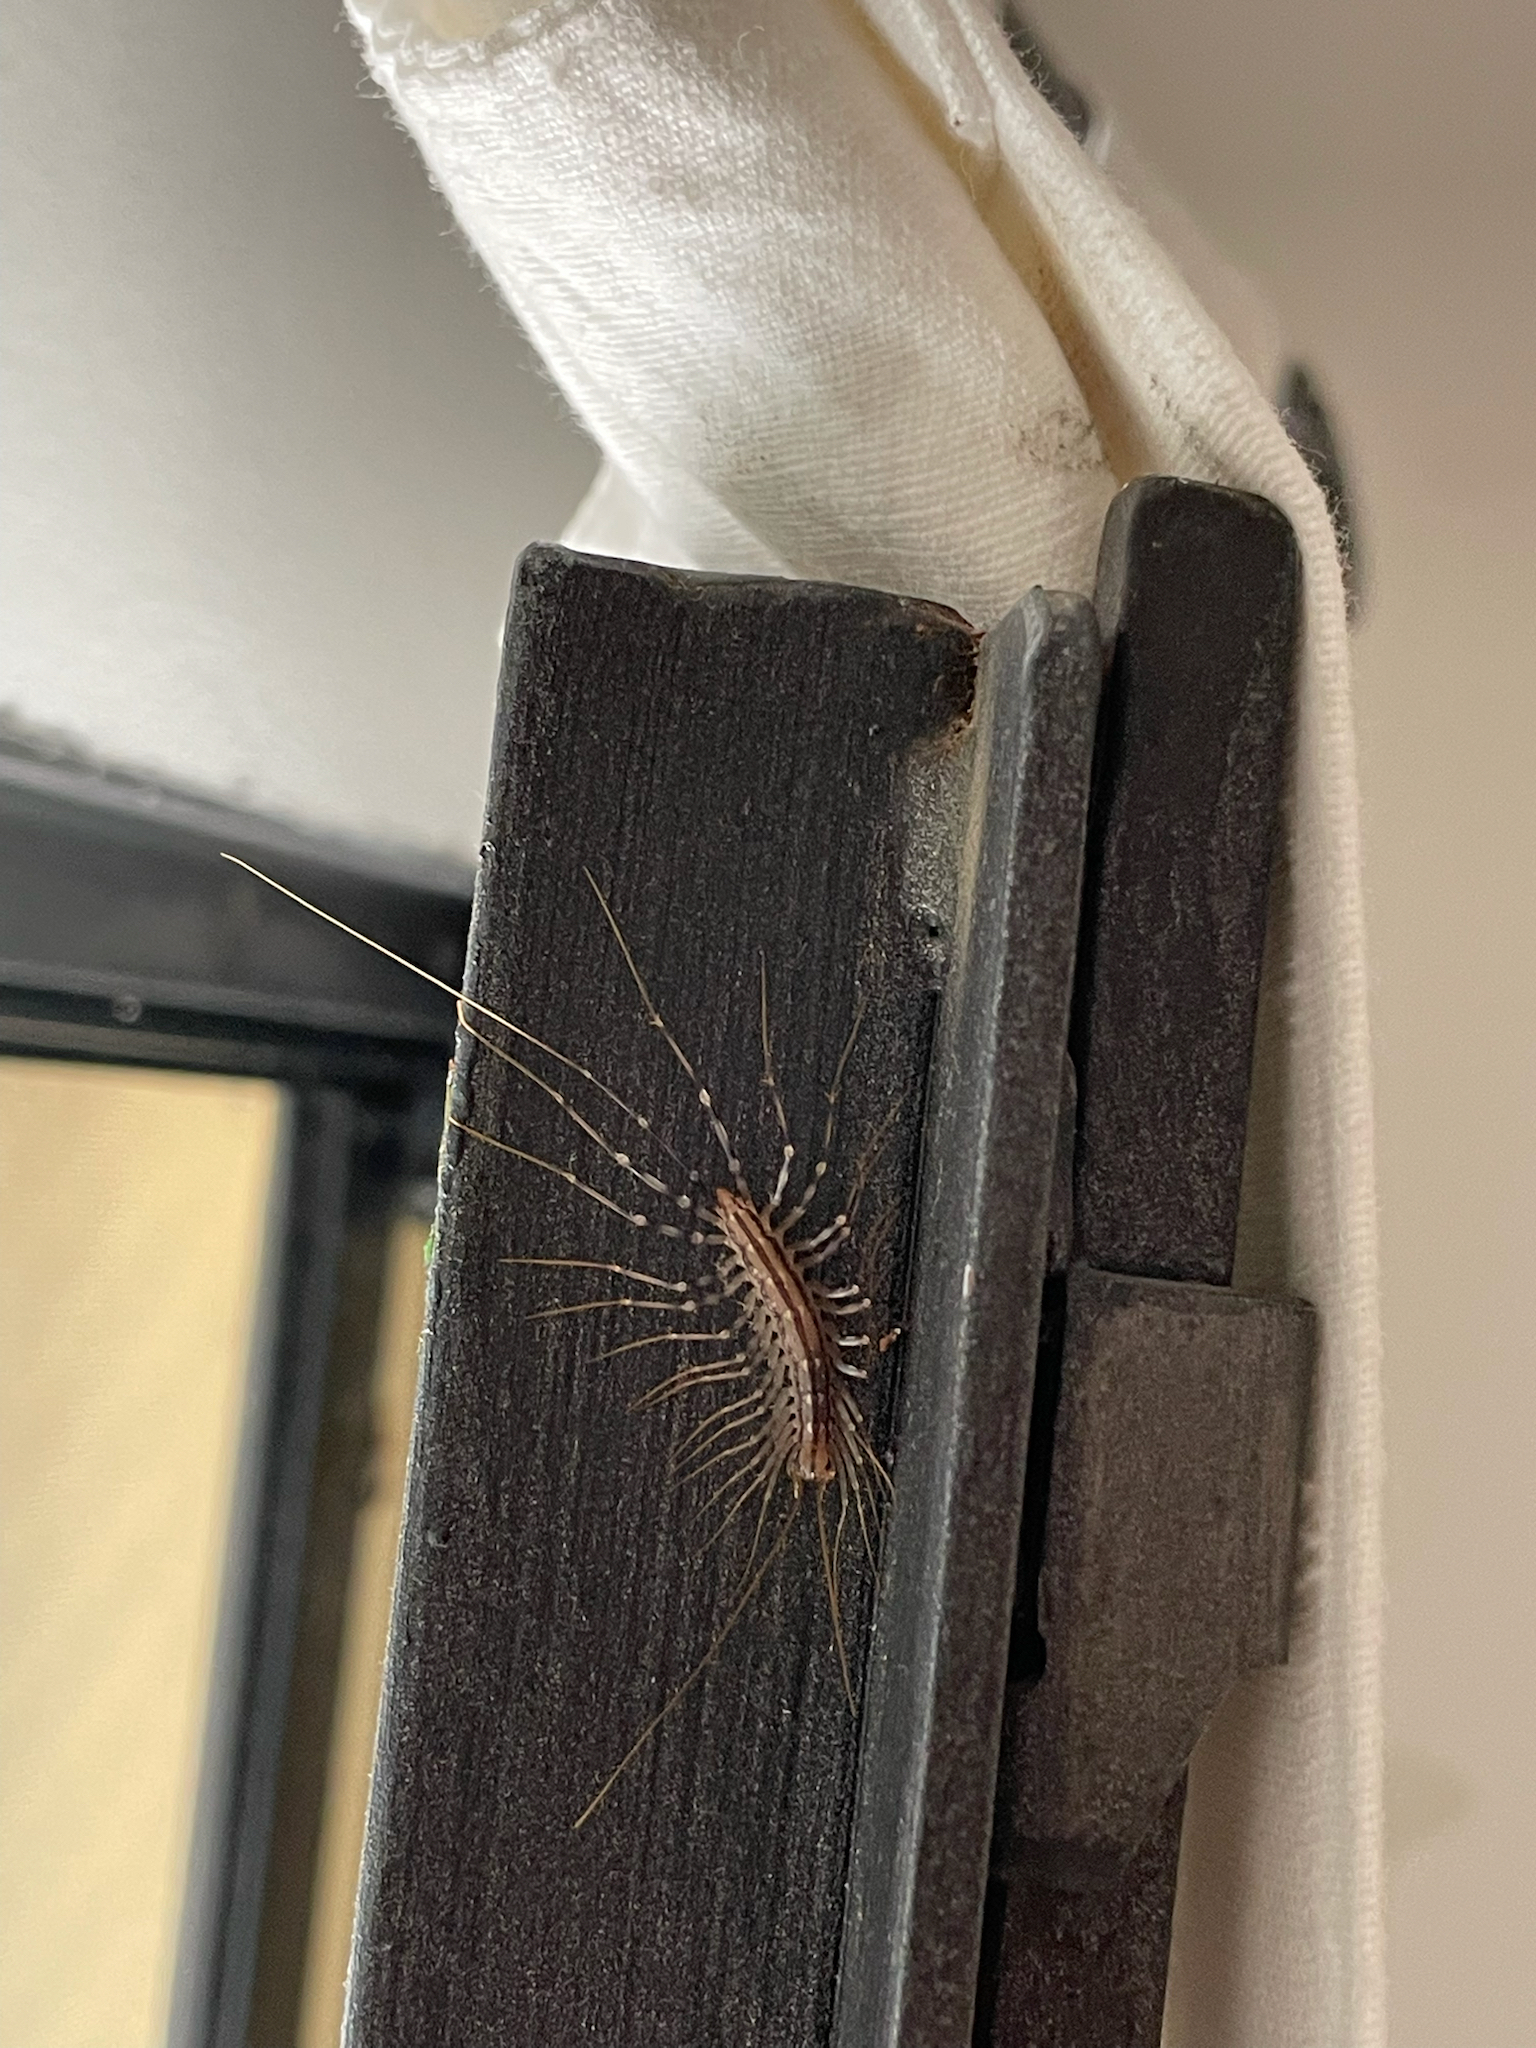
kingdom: Animalia
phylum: Arthropoda
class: Chilopoda
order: Scutigeromorpha
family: Scutigeridae
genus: Scutigera
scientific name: Scutigera coleoptrata
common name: House centipede
